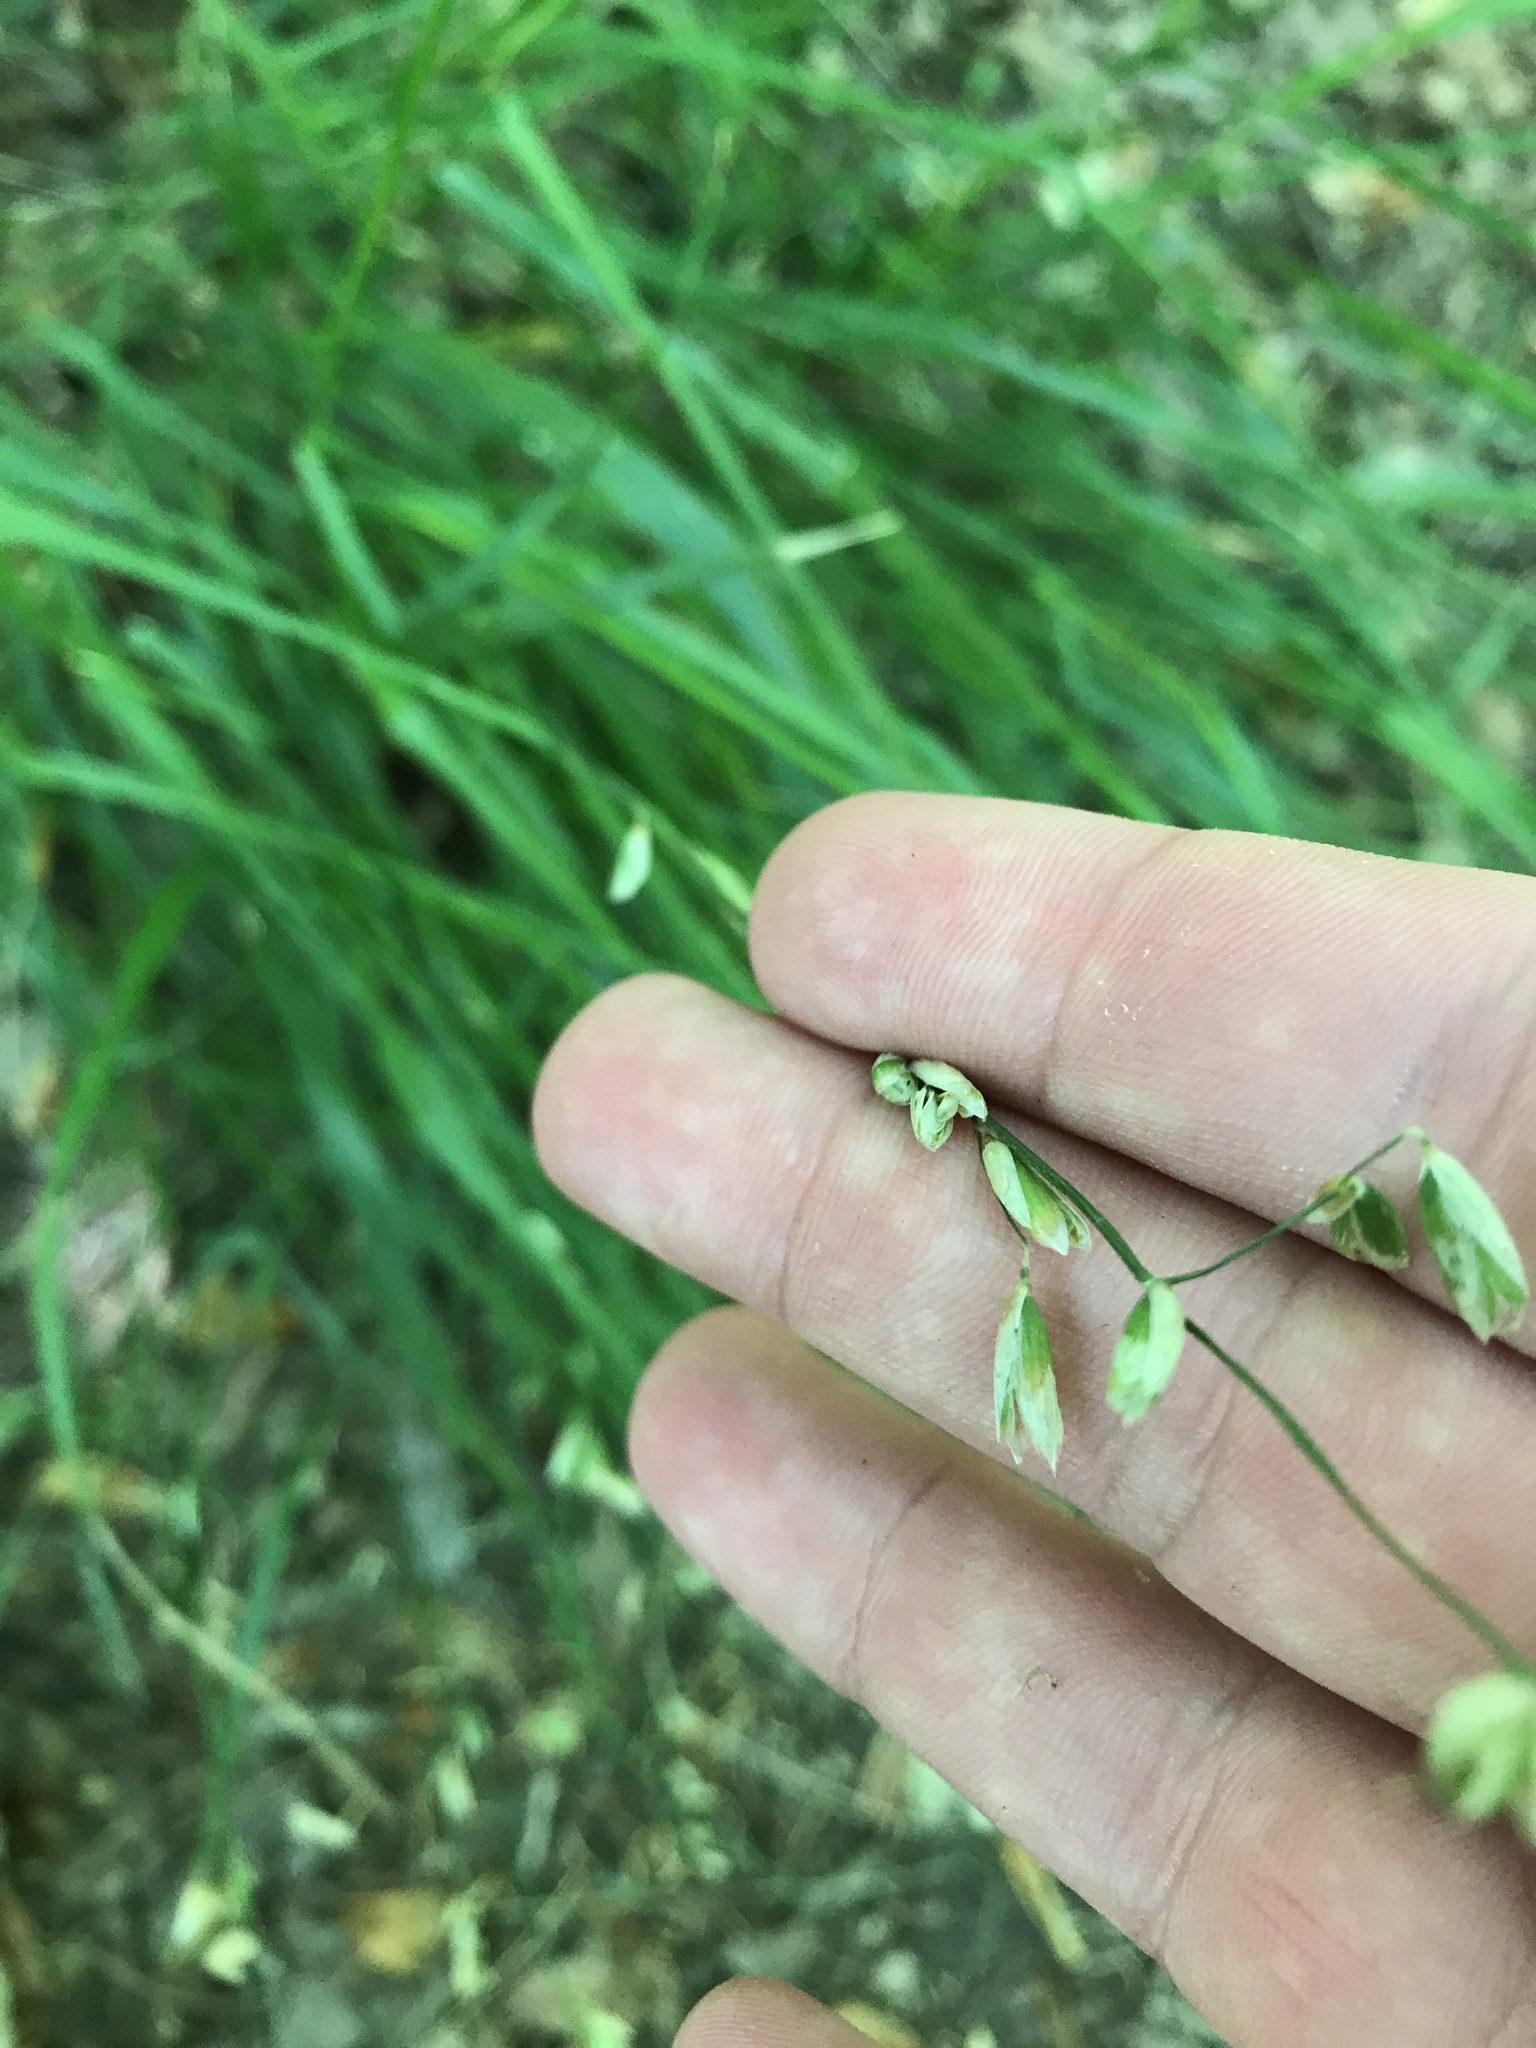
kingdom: Plantae
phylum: Tracheophyta
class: Liliopsida
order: Poales
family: Poaceae
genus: Melica
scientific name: Melica mutica
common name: Two-flower melic
